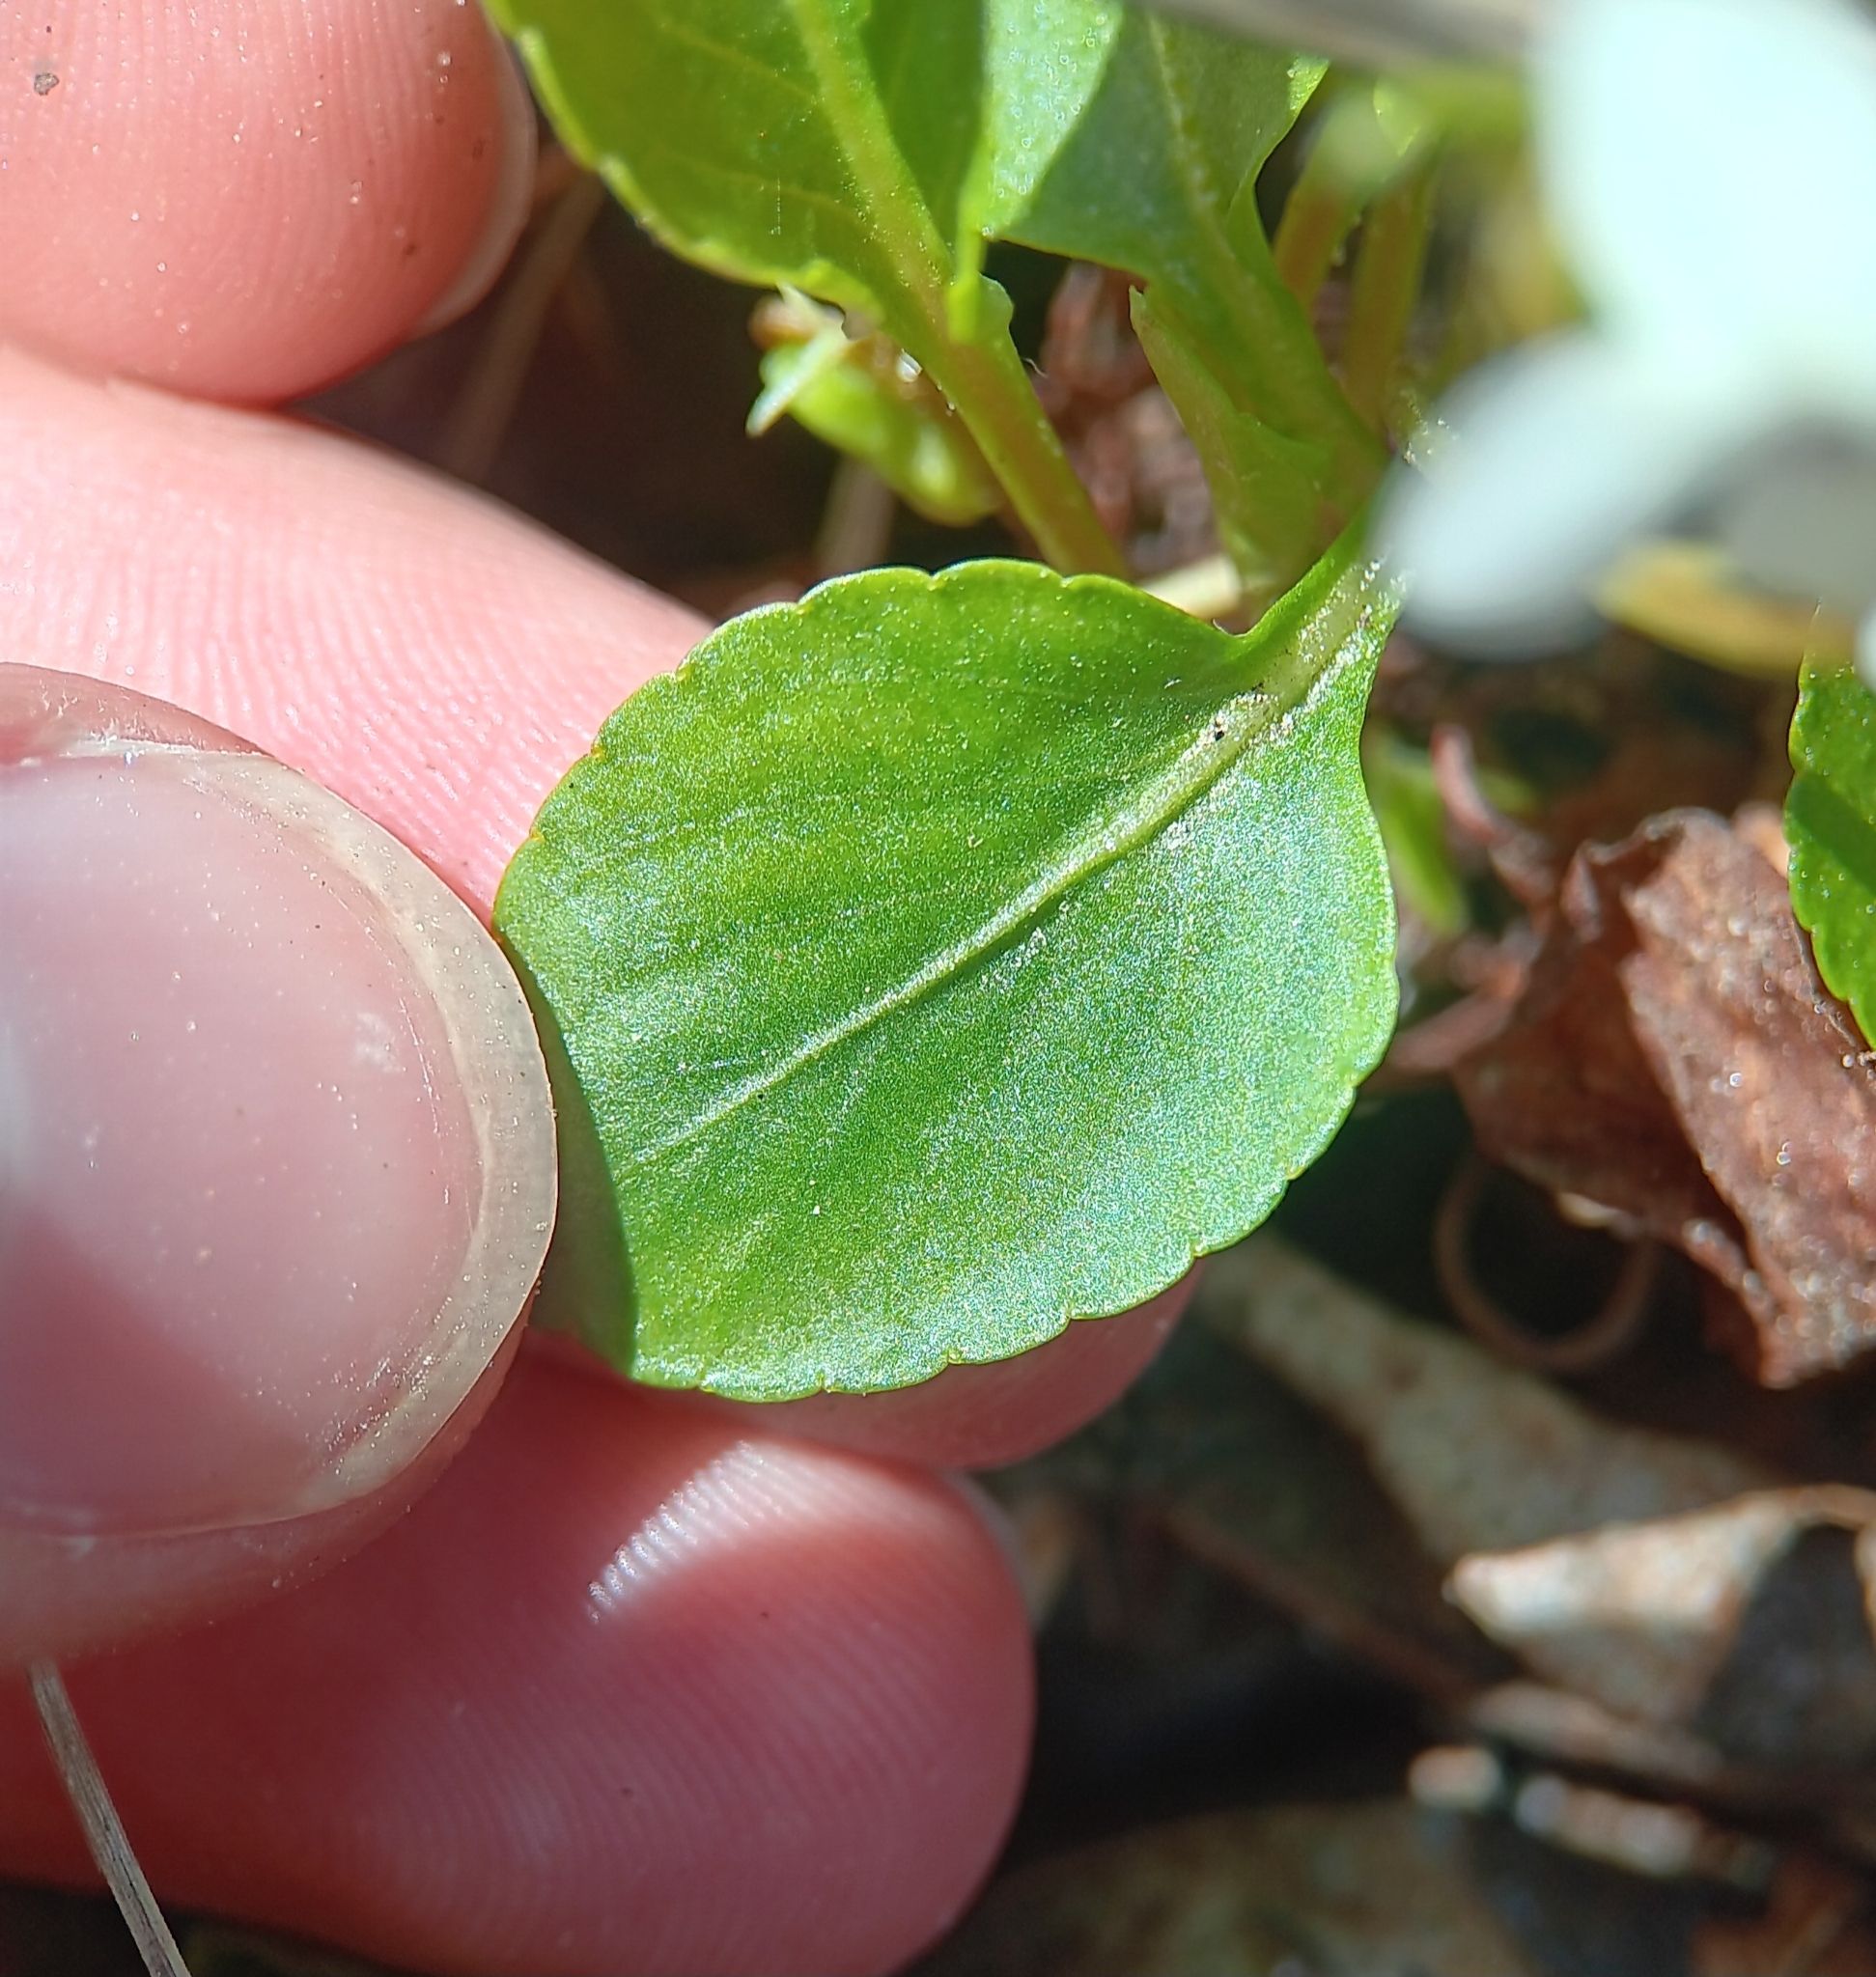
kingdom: Plantae
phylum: Tracheophyta
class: Magnoliopsida
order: Malpighiales
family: Violaceae
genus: Viola
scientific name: Viola primulifolia
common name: Primrose-leaf violet
